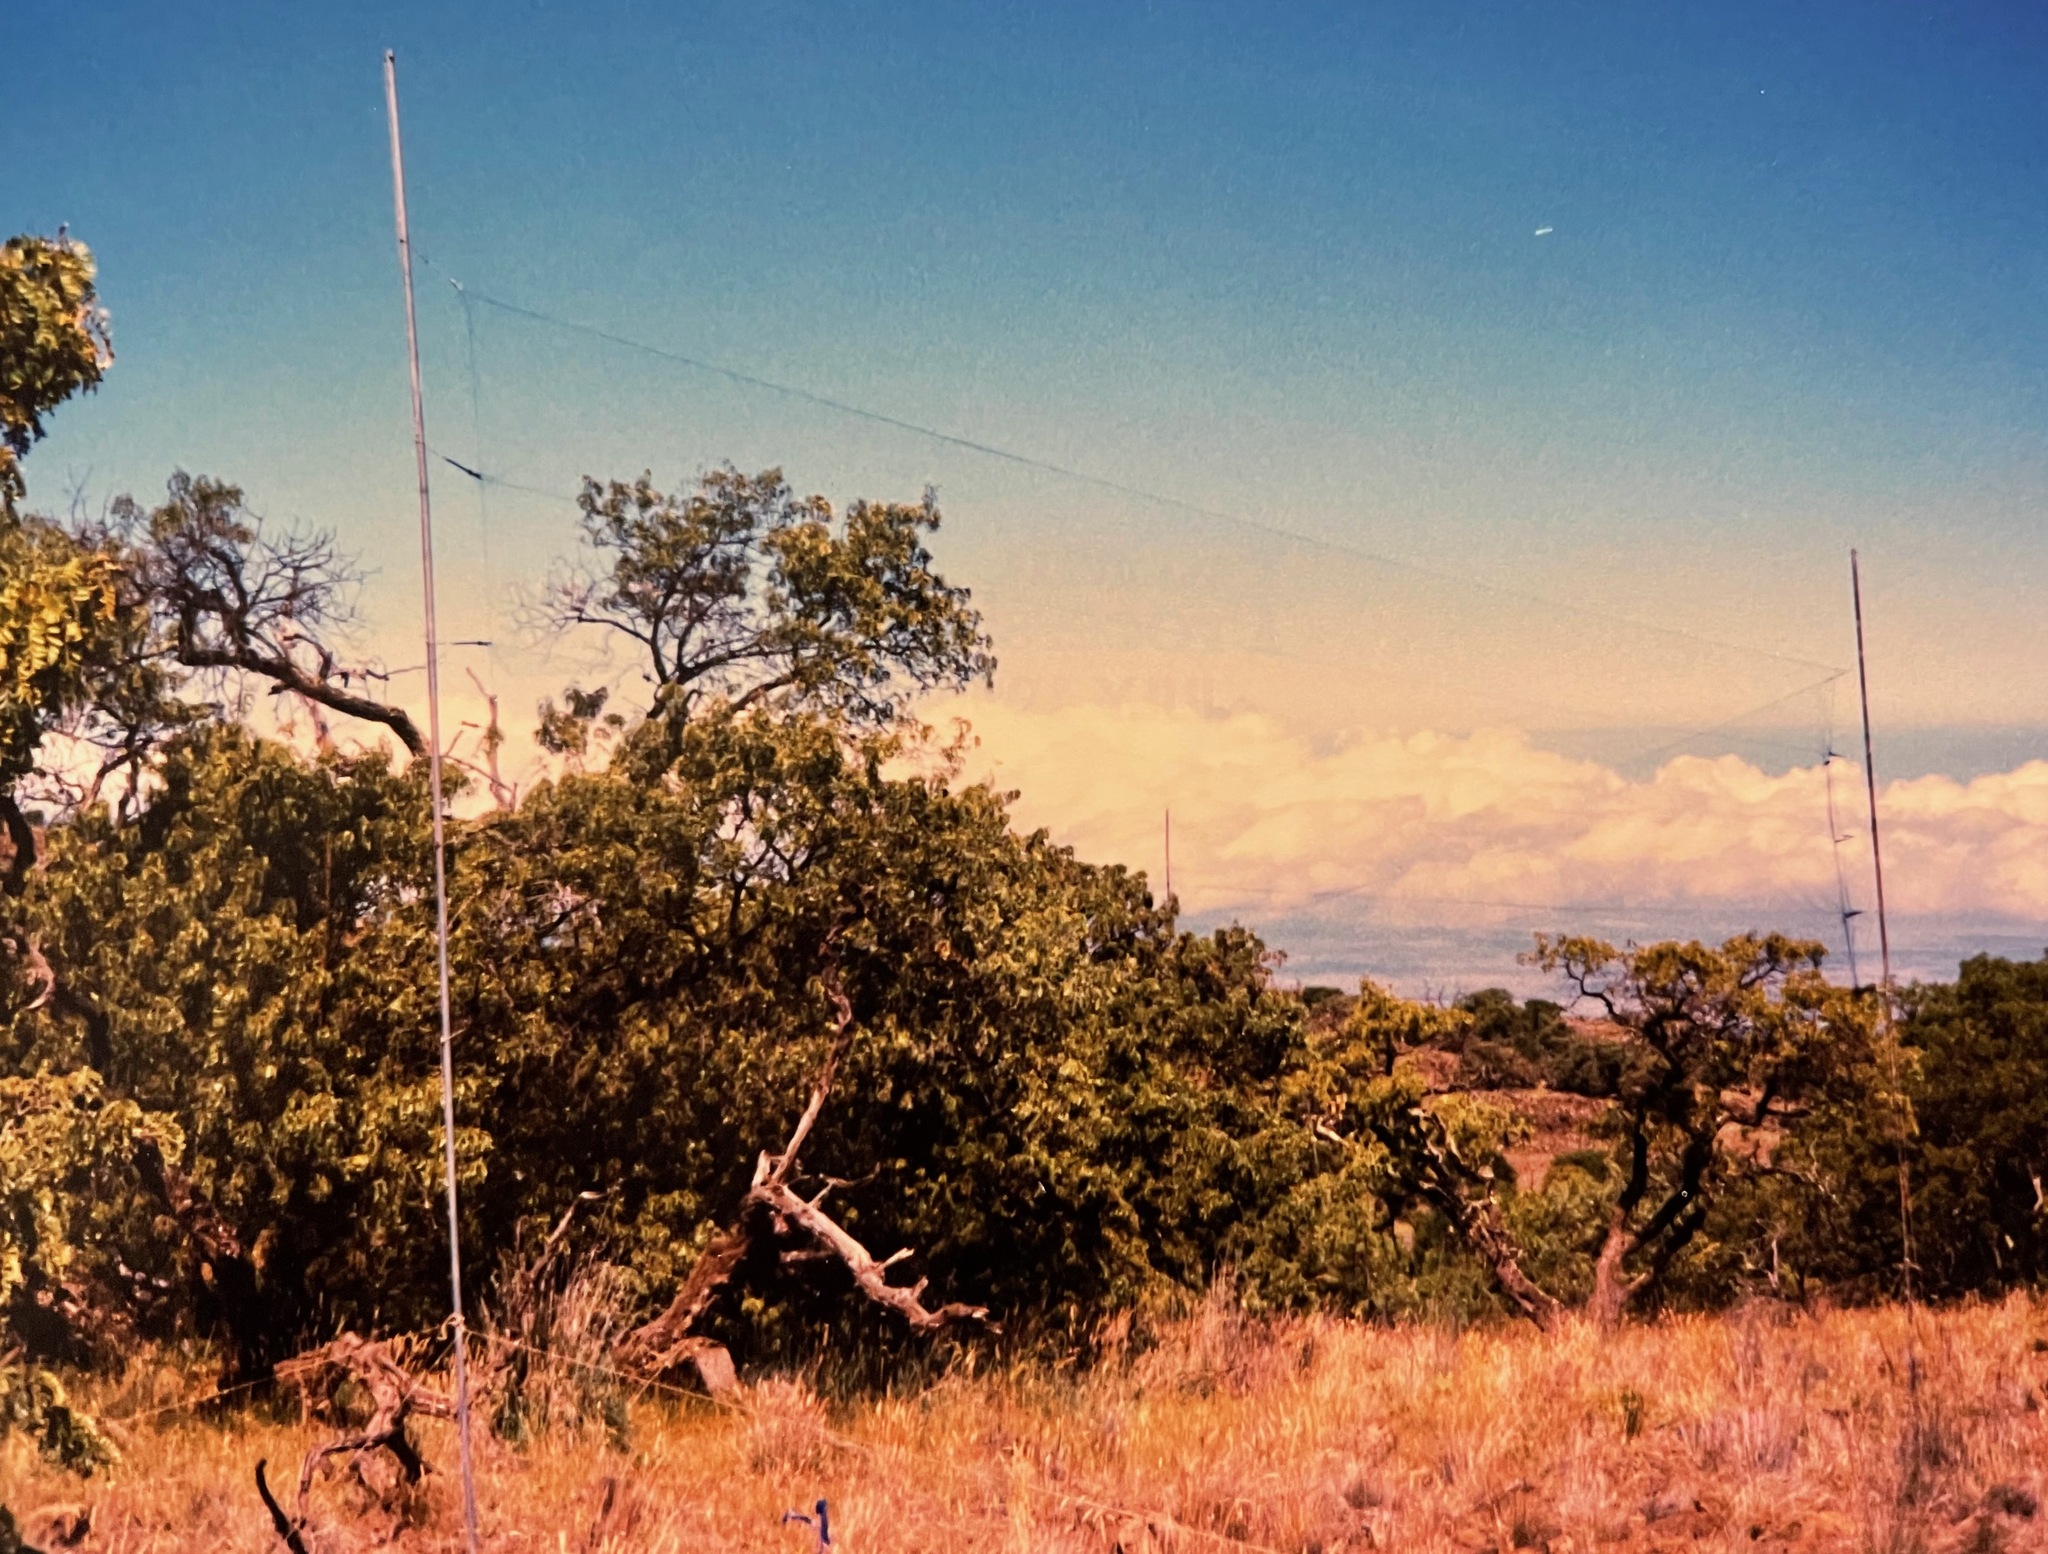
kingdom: Plantae
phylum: Tracheophyta
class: Magnoliopsida
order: Fabales
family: Fabaceae
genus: Sophora
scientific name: Sophora chrysophylla
